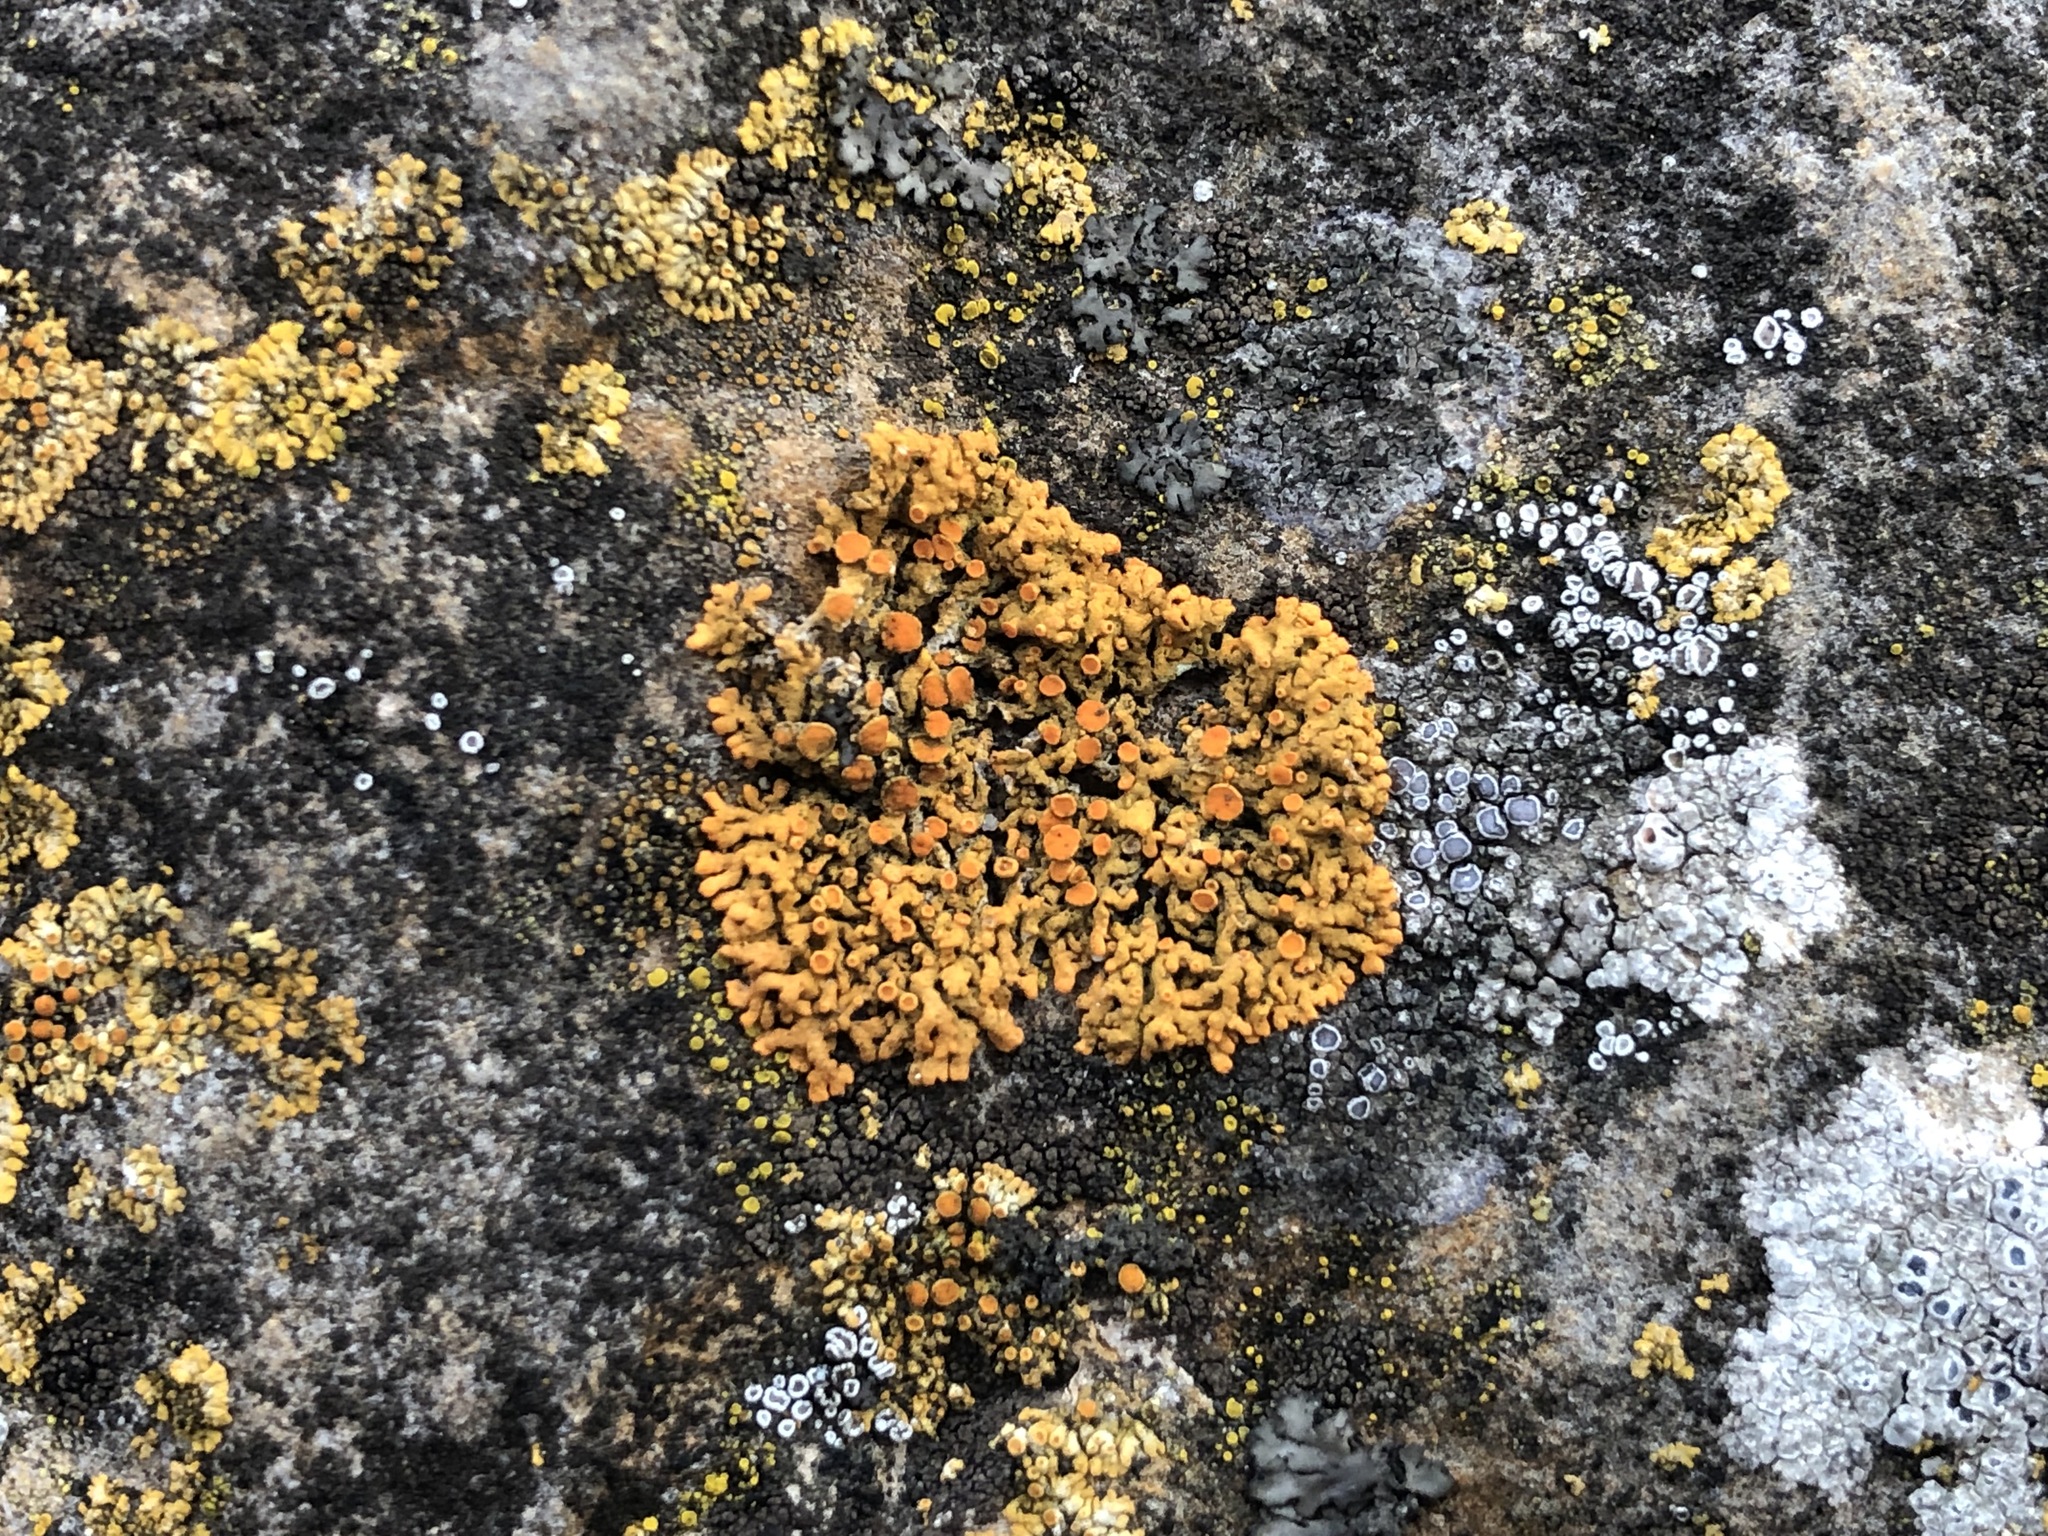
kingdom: Fungi
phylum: Ascomycota
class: Lecanoromycetes
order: Teloschistales
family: Teloschistaceae
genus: Xanthoria
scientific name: Xanthoria elegans
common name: Elegant sunburst lichen
